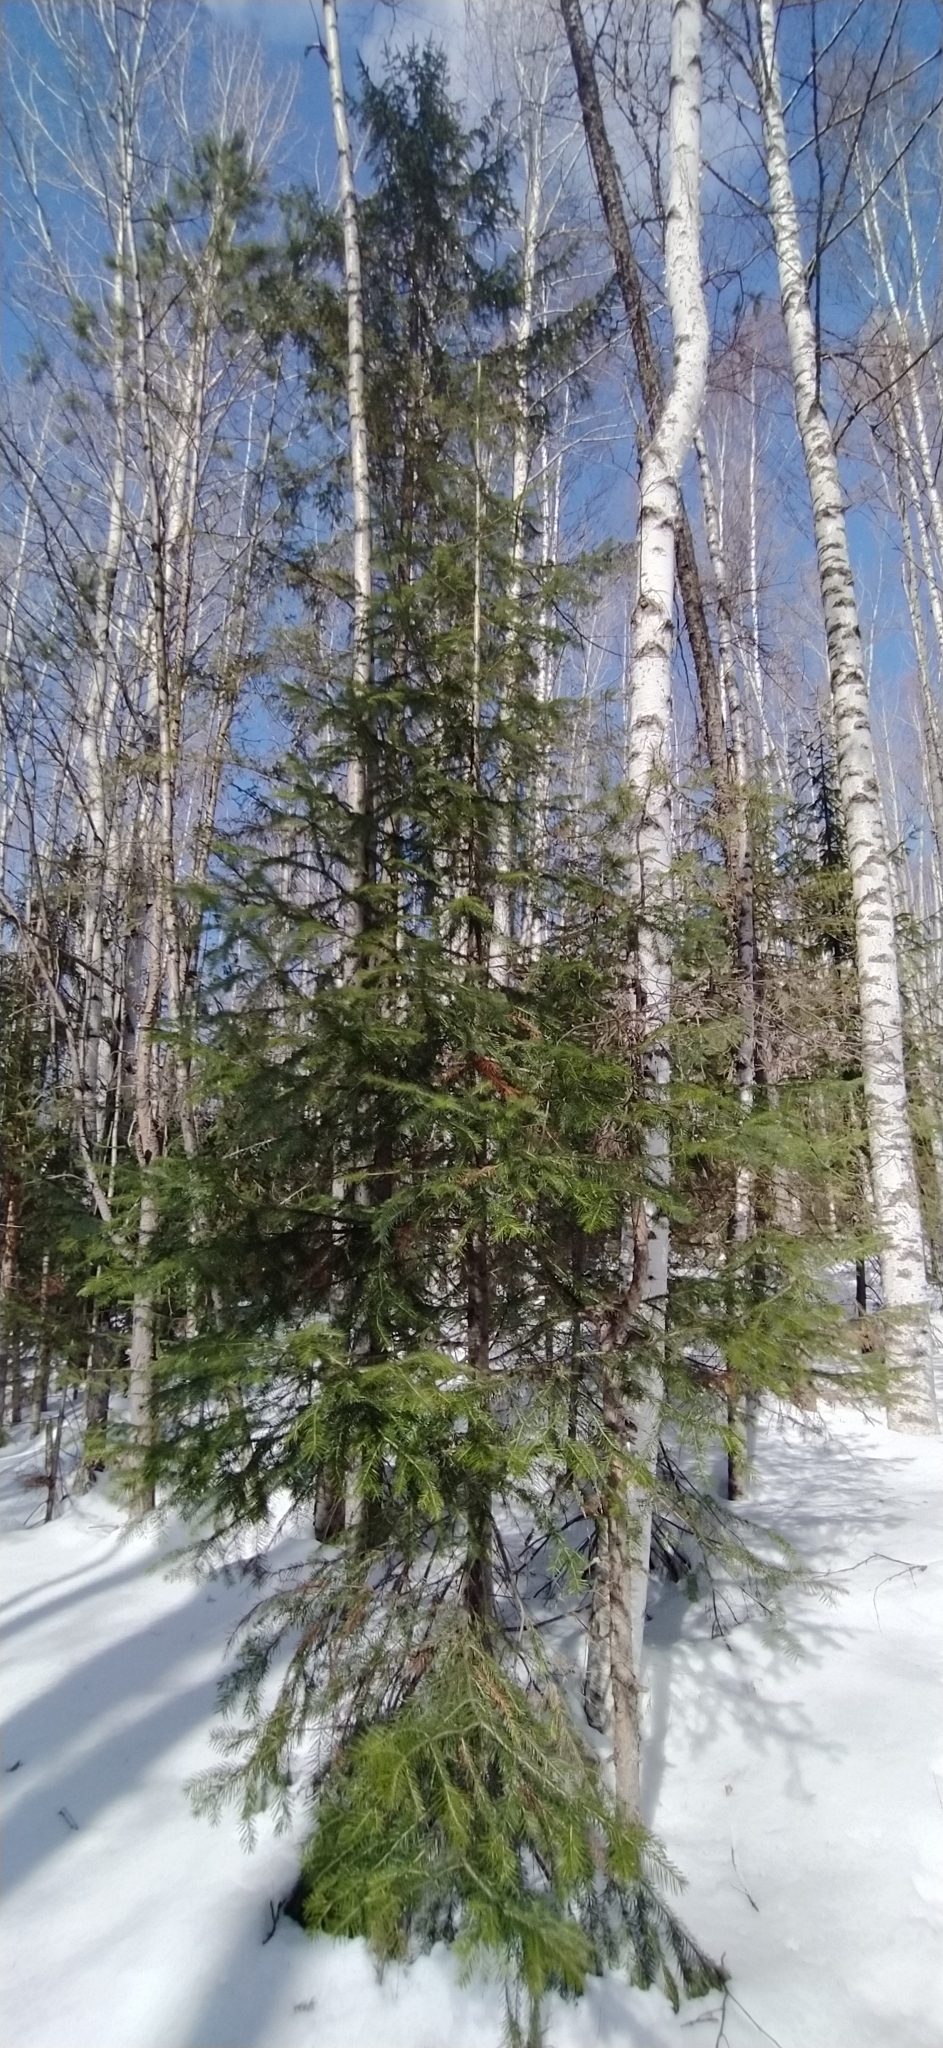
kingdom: Plantae
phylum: Tracheophyta
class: Pinopsida
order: Pinales
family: Pinaceae
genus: Abies
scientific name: Abies sibirica
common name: Siberian fir
